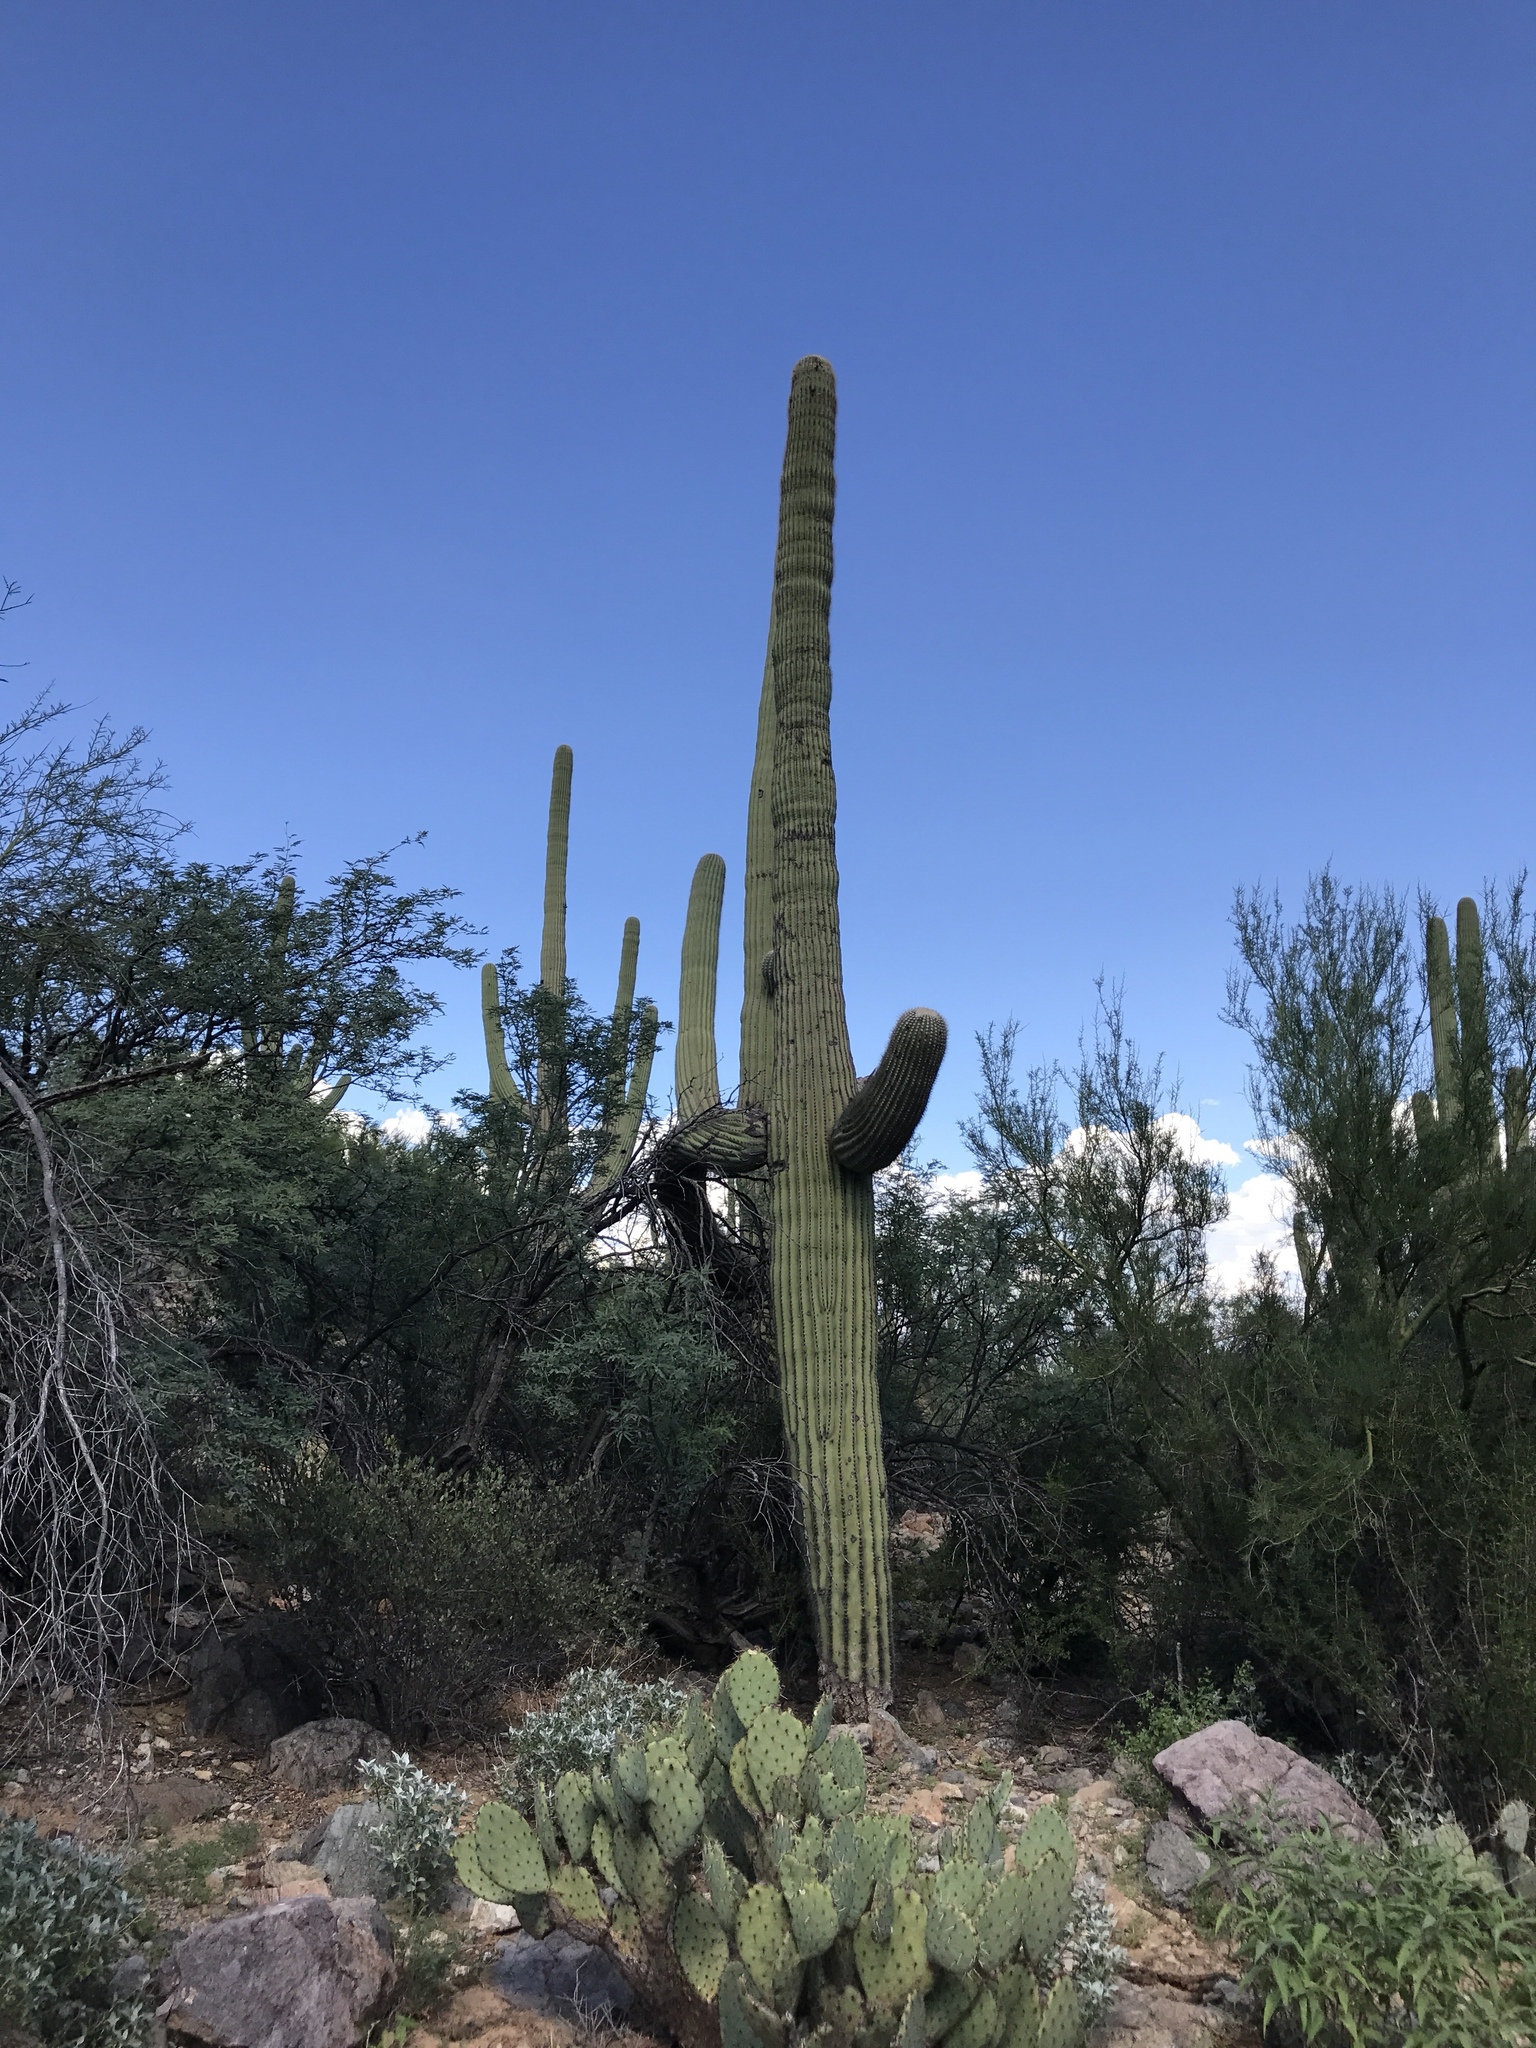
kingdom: Plantae
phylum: Tracheophyta
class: Magnoliopsida
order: Caryophyllales
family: Cactaceae
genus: Carnegiea
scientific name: Carnegiea gigantea
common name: Saguaro
